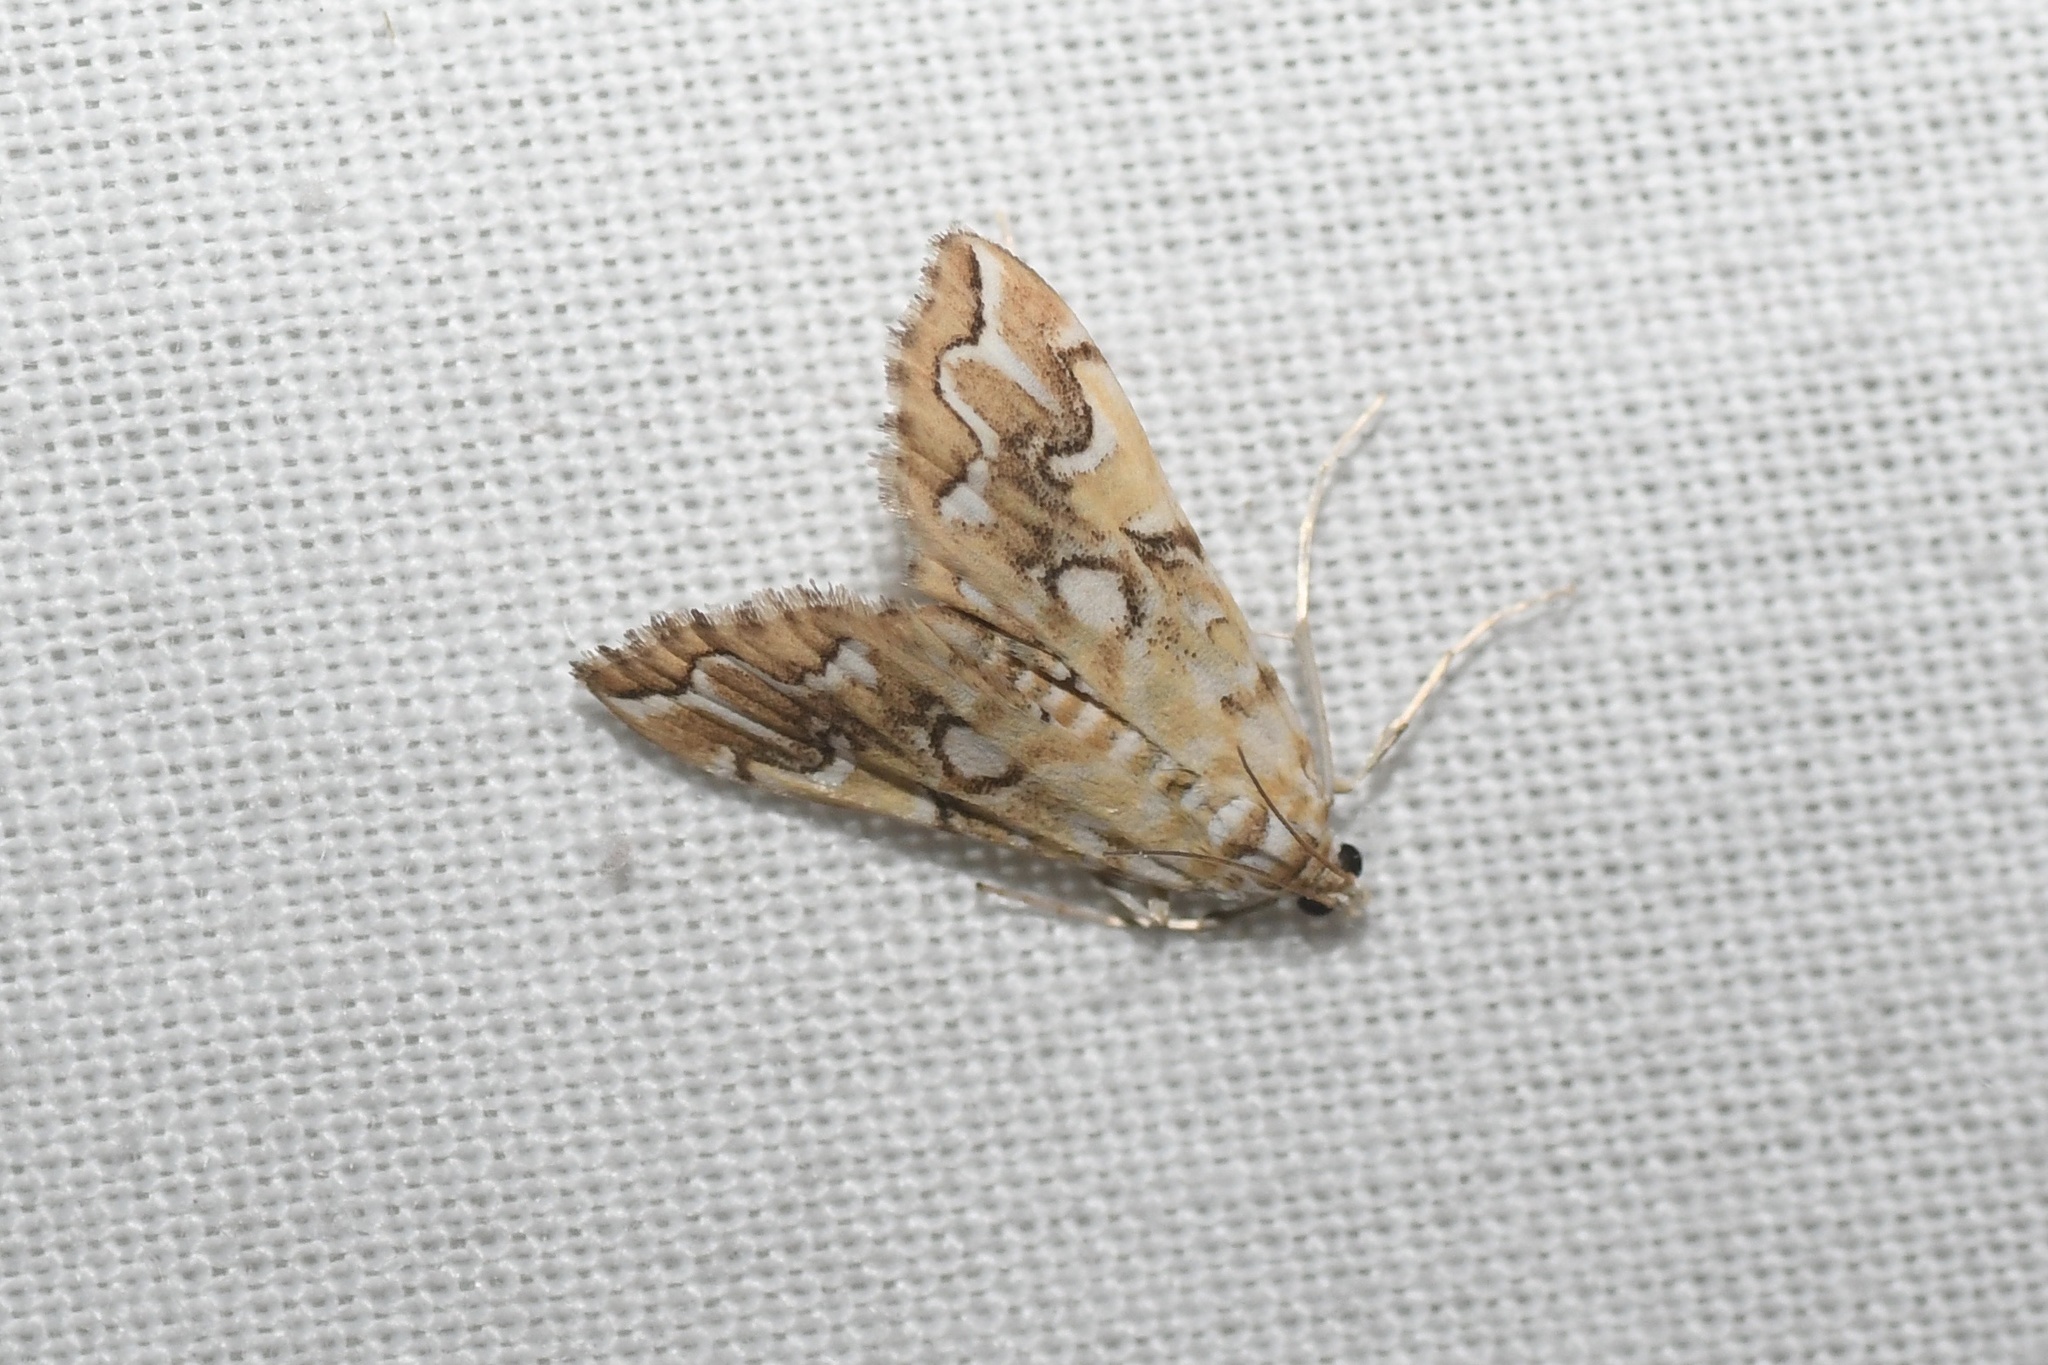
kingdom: Animalia
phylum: Arthropoda
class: Insecta
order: Lepidoptera
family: Crambidae
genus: Elophila
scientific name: Elophila icciusalis
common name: Pondside pyralid moth
